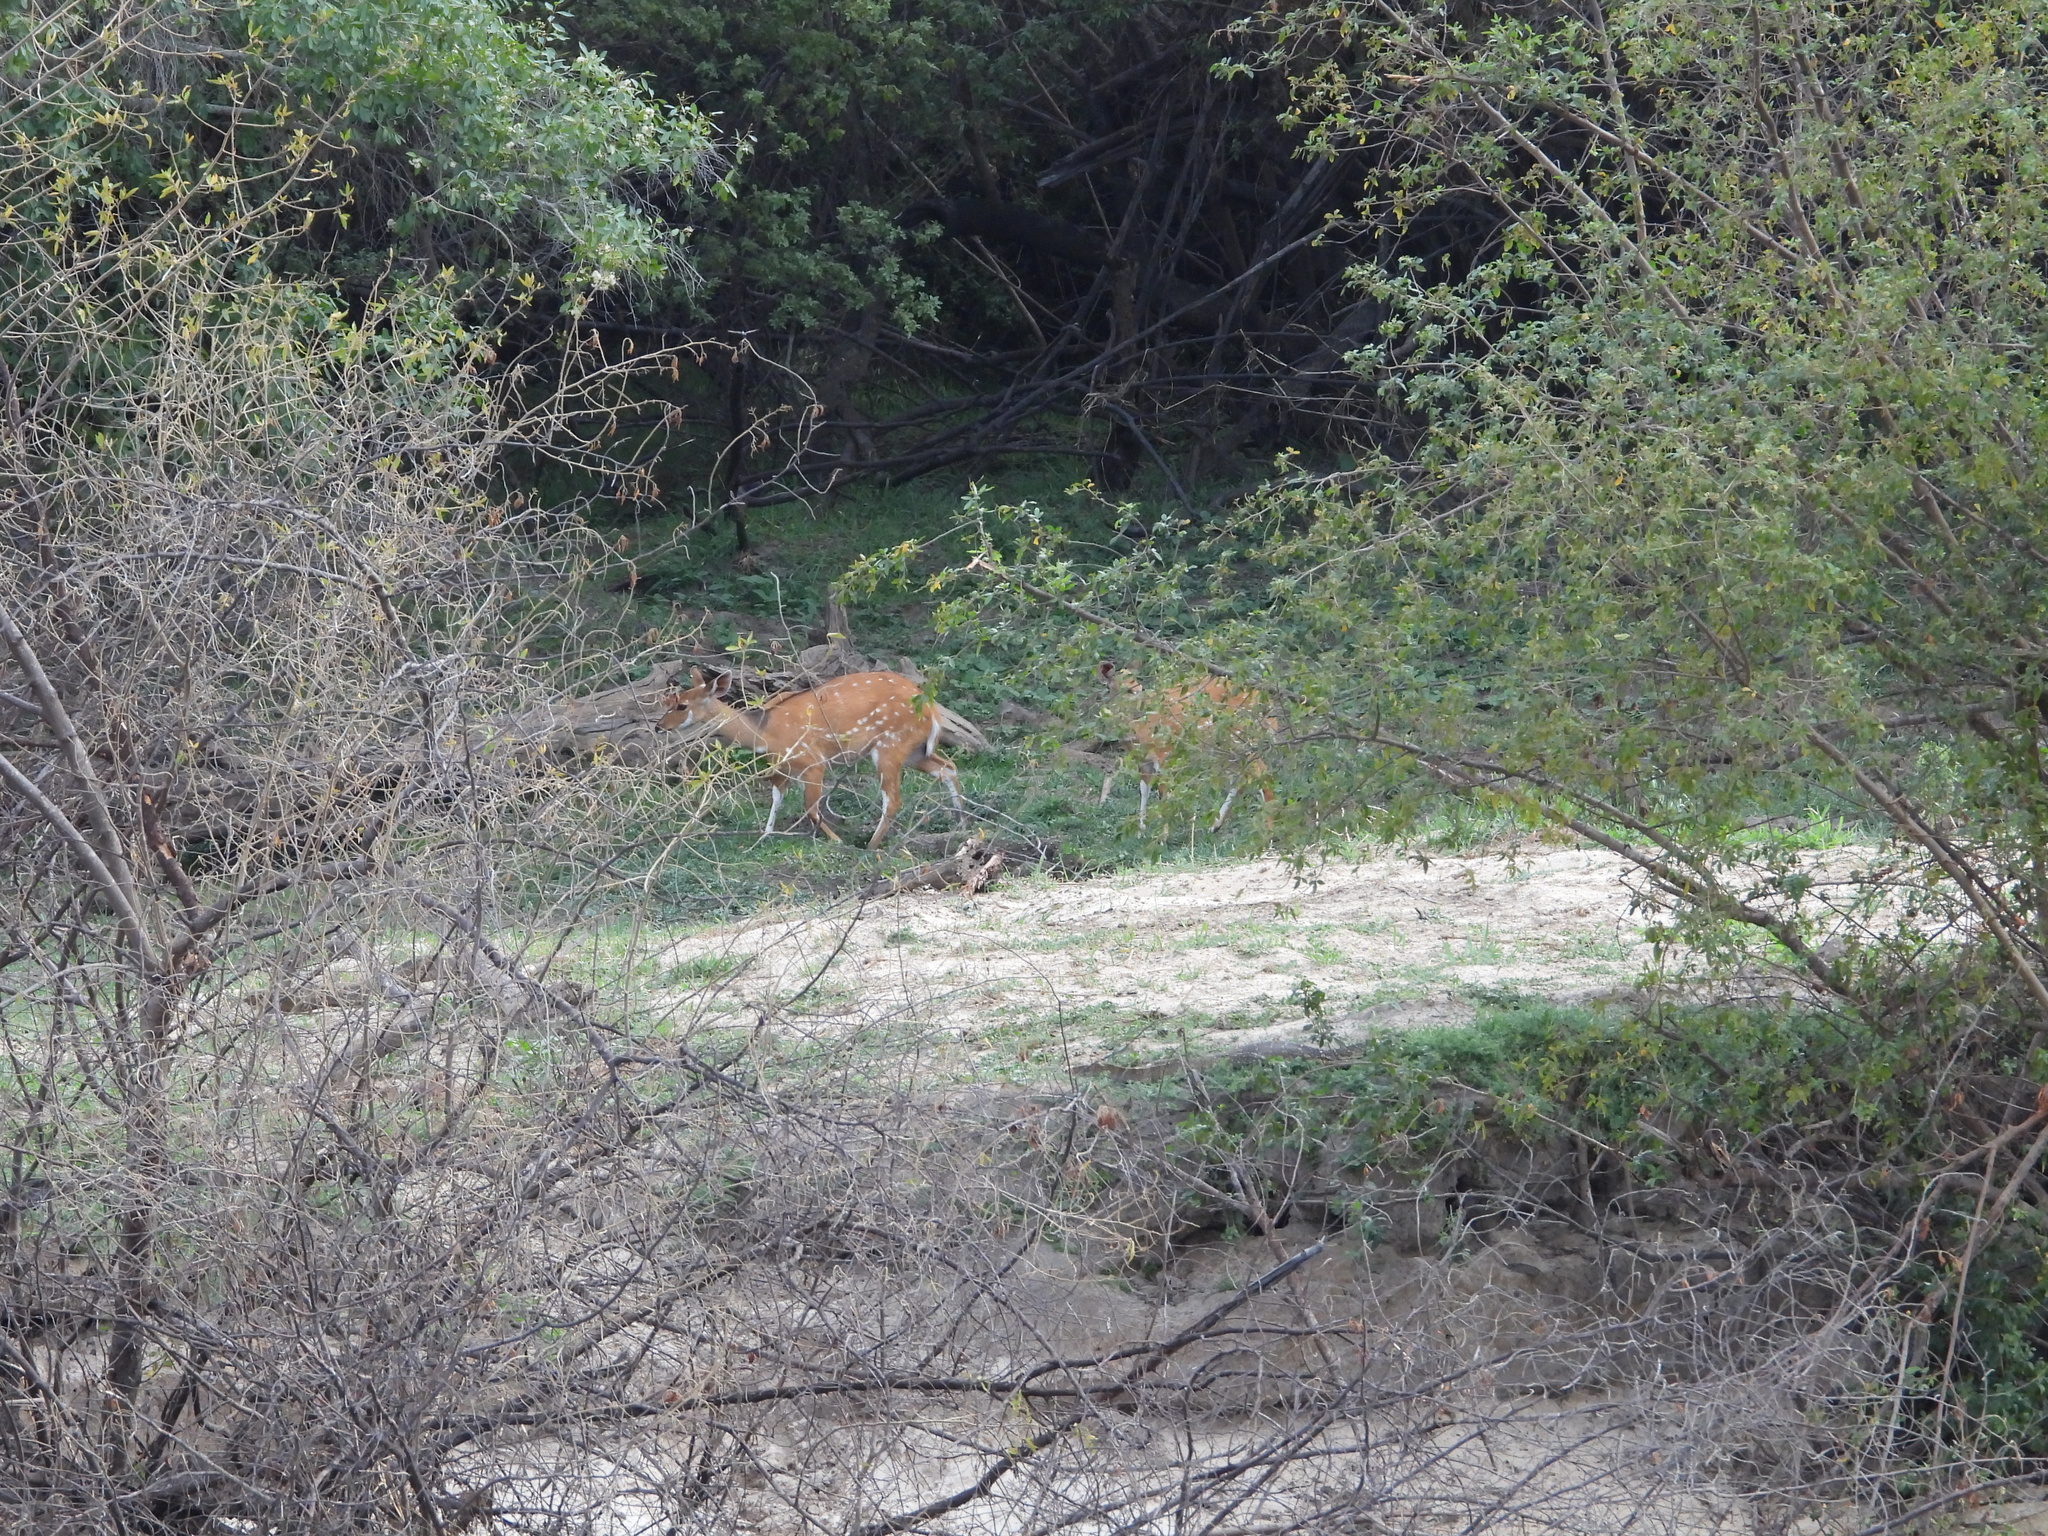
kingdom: Animalia
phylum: Chordata
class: Mammalia
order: Artiodactyla
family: Bovidae
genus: Tragelaphus
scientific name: Tragelaphus scriptus
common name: Bushbuck
